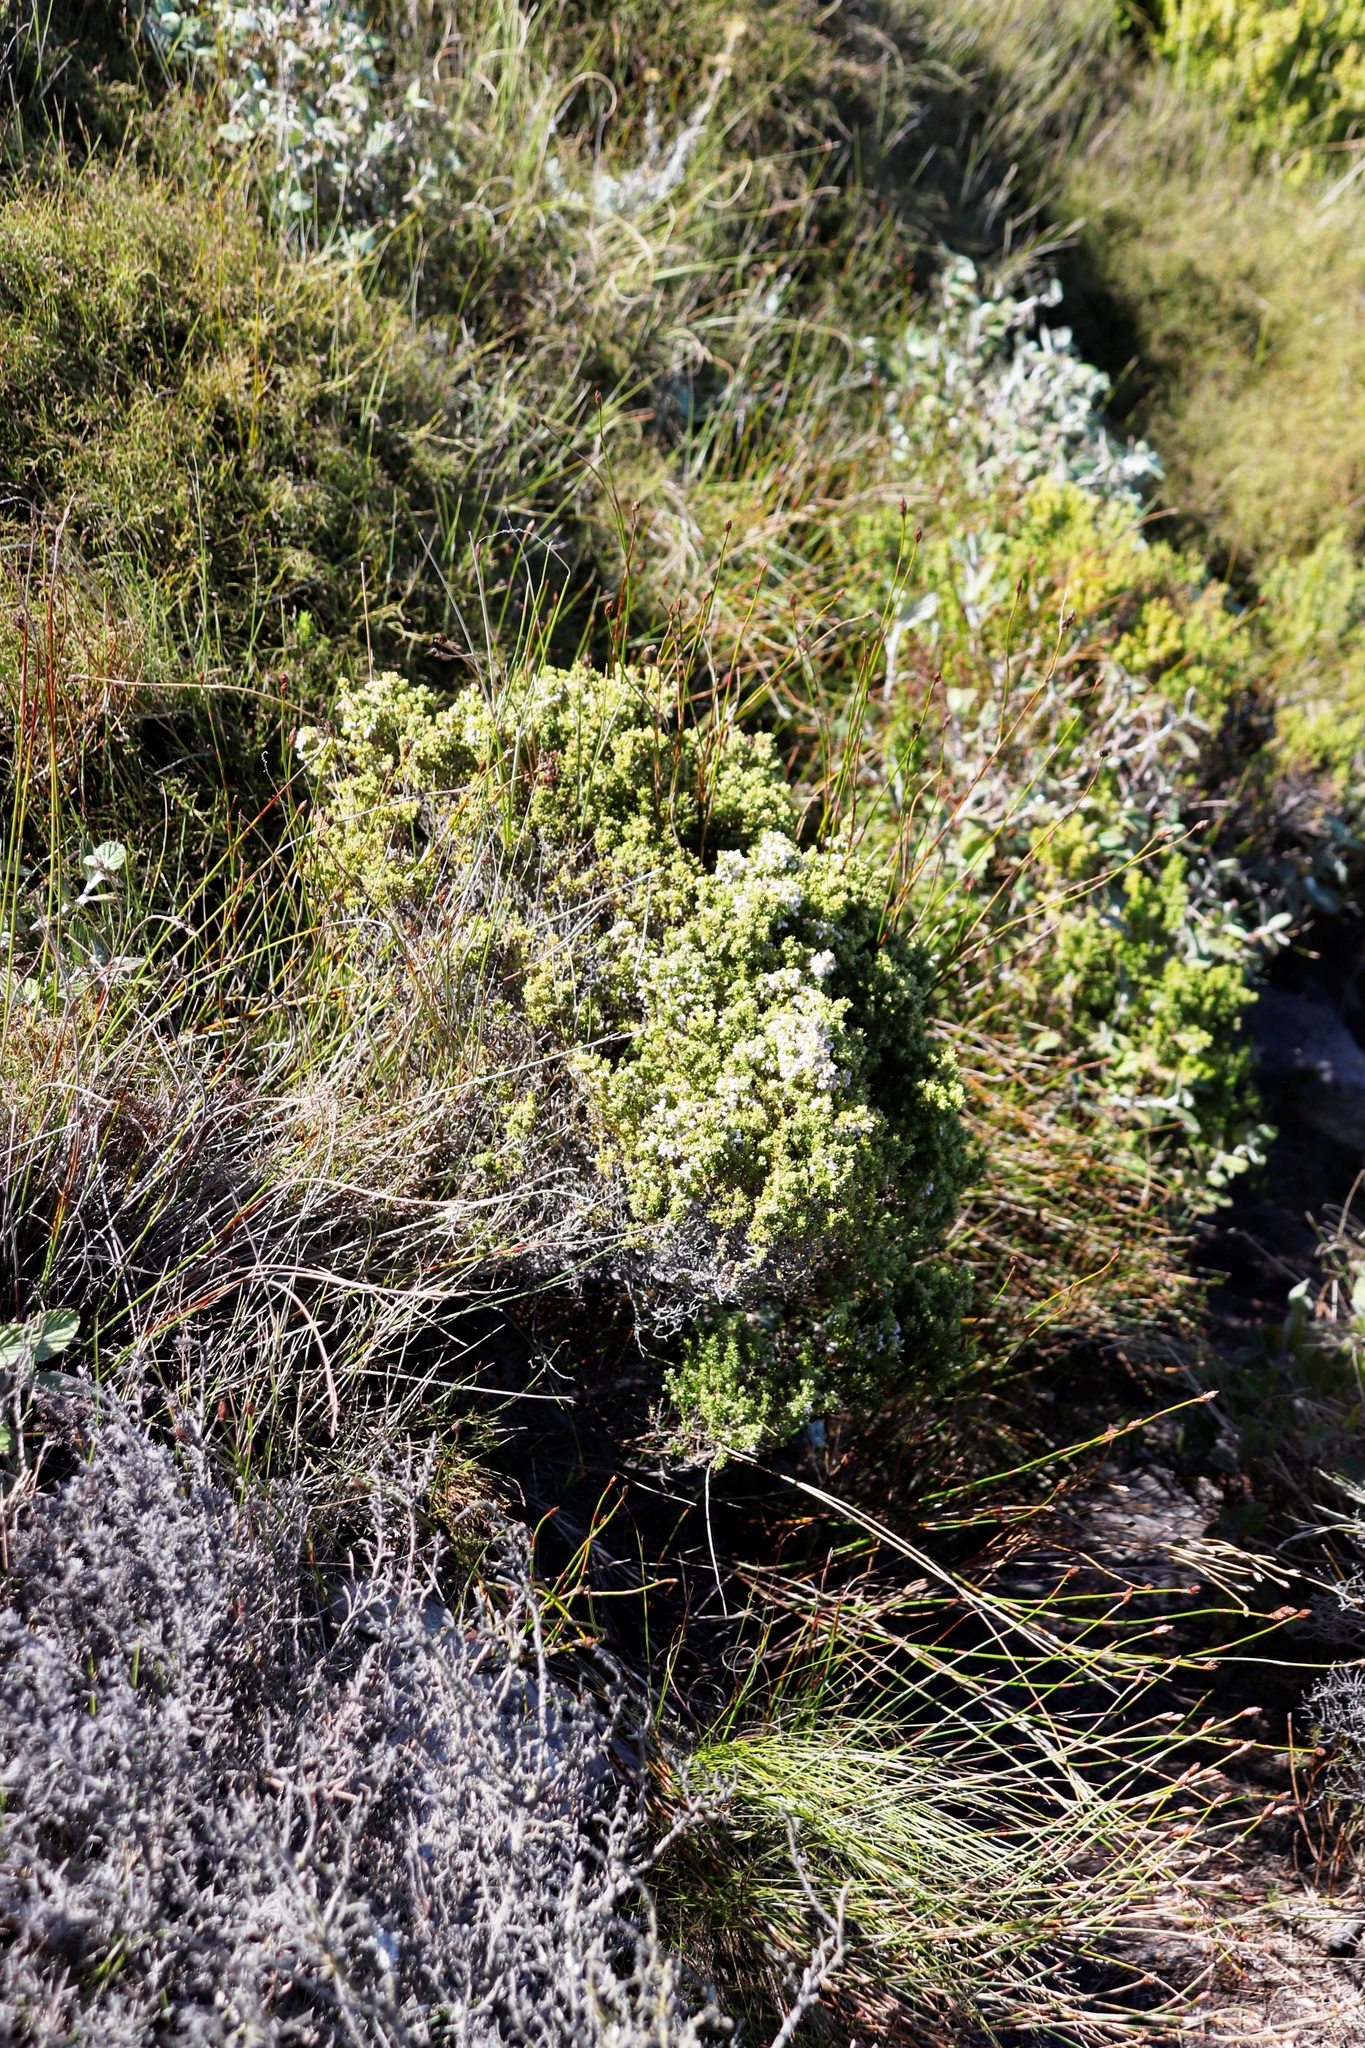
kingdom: Plantae
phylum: Tracheophyta
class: Magnoliopsida
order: Ericales
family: Ericaceae
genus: Erica
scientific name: Erica hispidula
